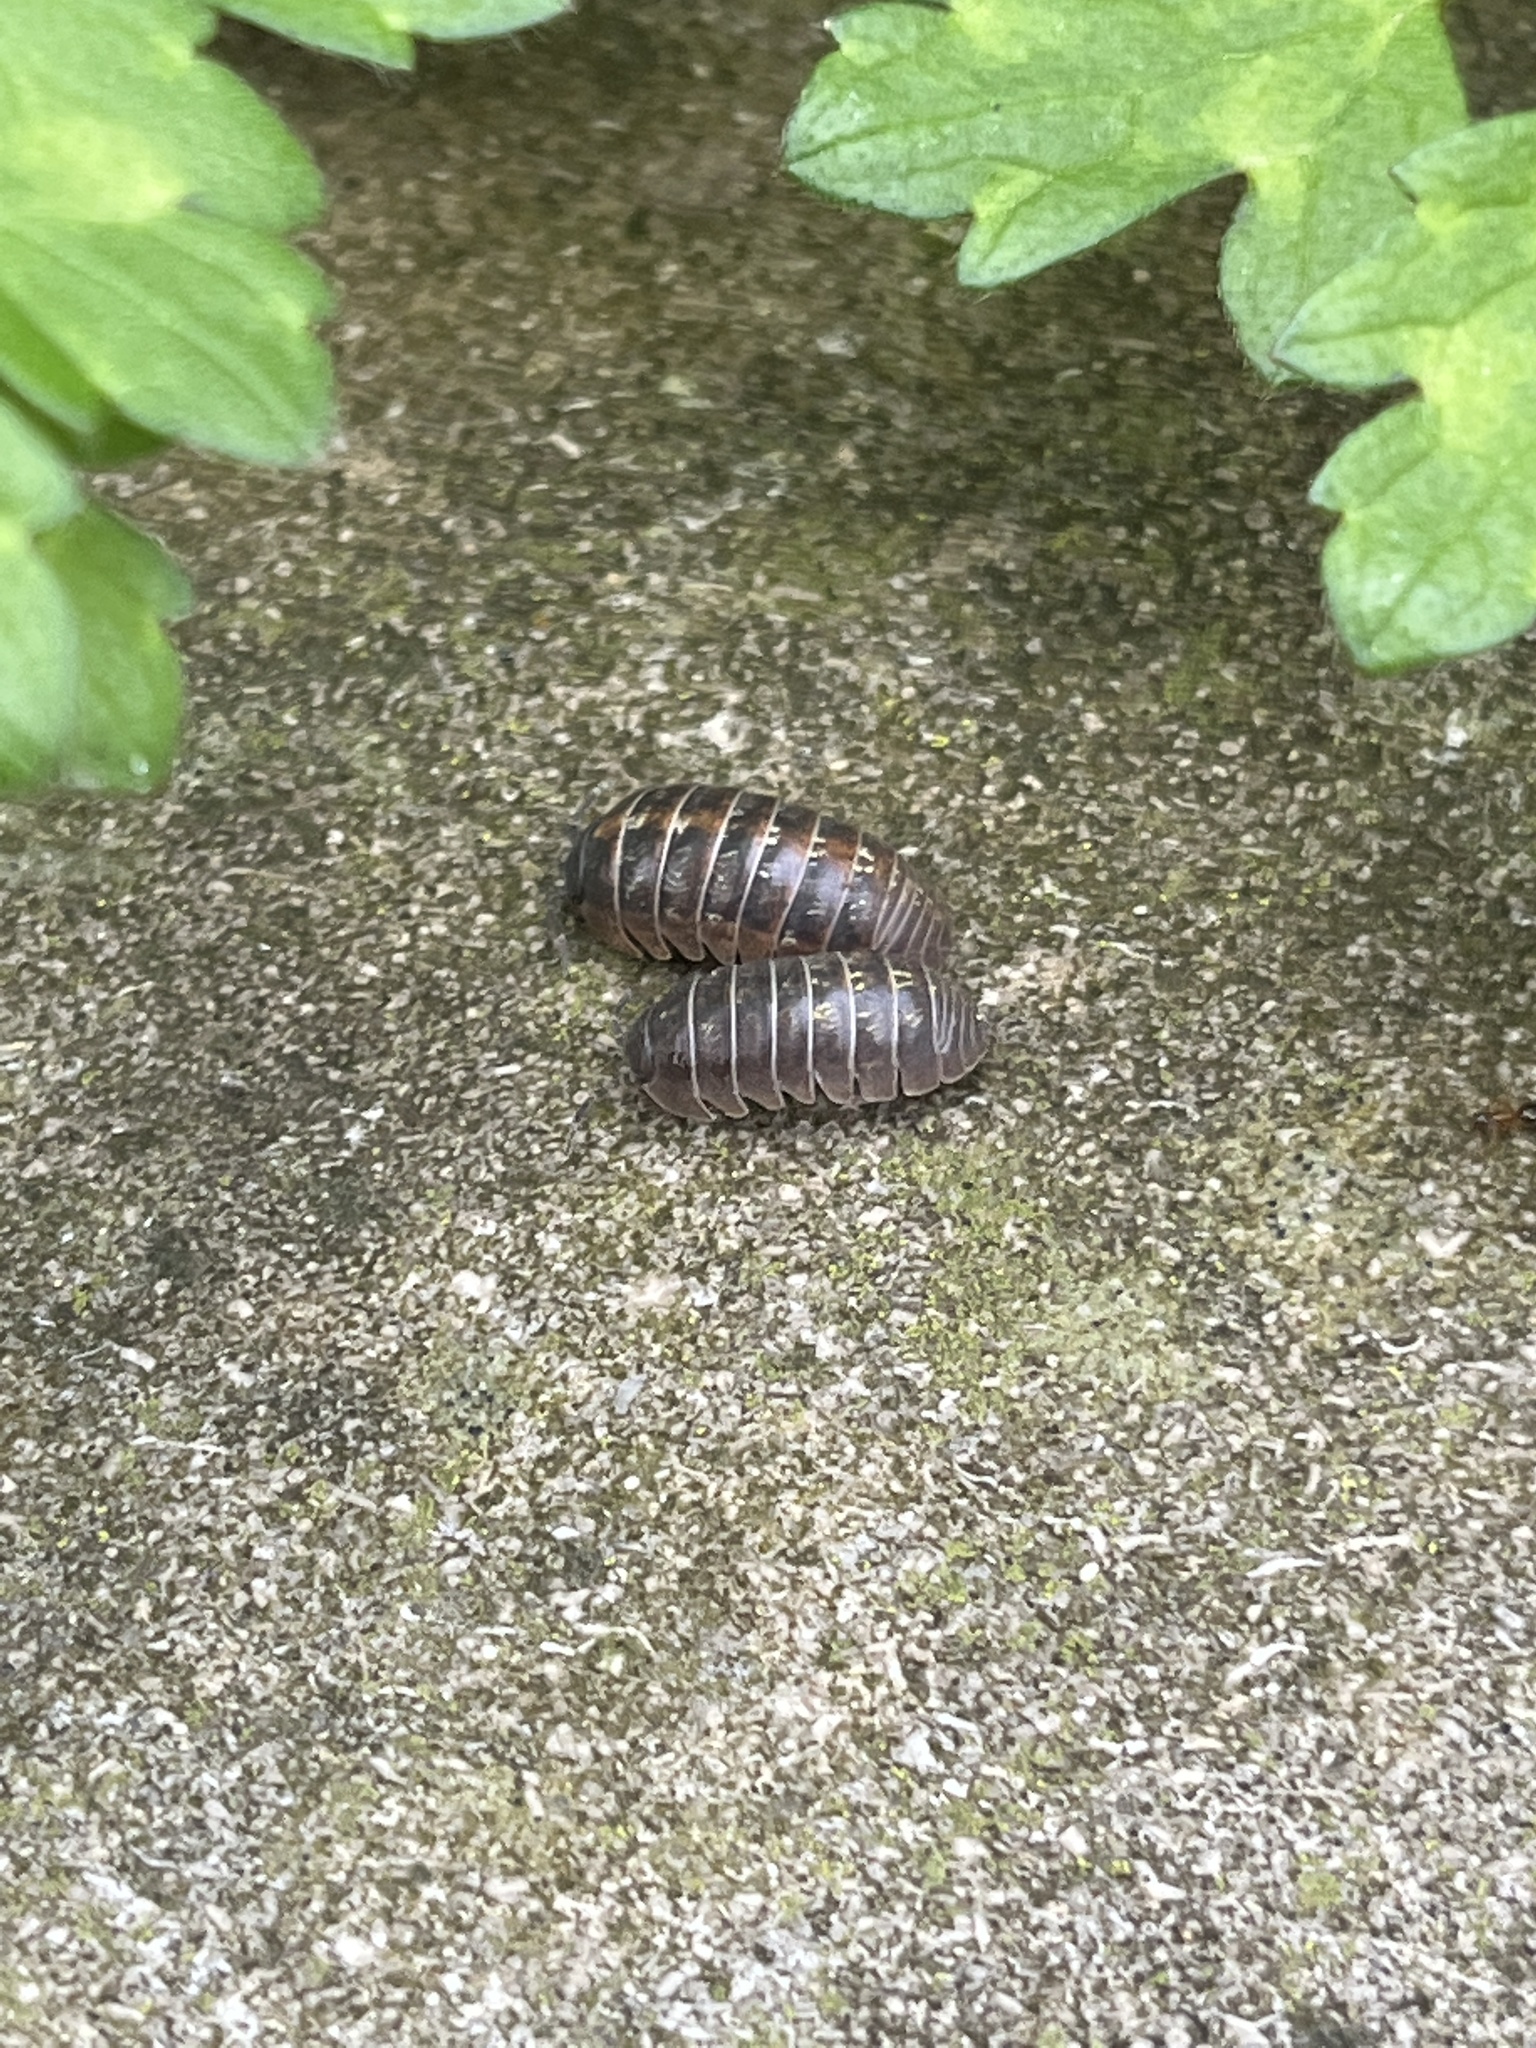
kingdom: Animalia
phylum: Arthropoda
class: Malacostraca
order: Isopoda
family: Armadillidiidae
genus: Armadillidium
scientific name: Armadillidium vulgare
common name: Common pill woodlouse
